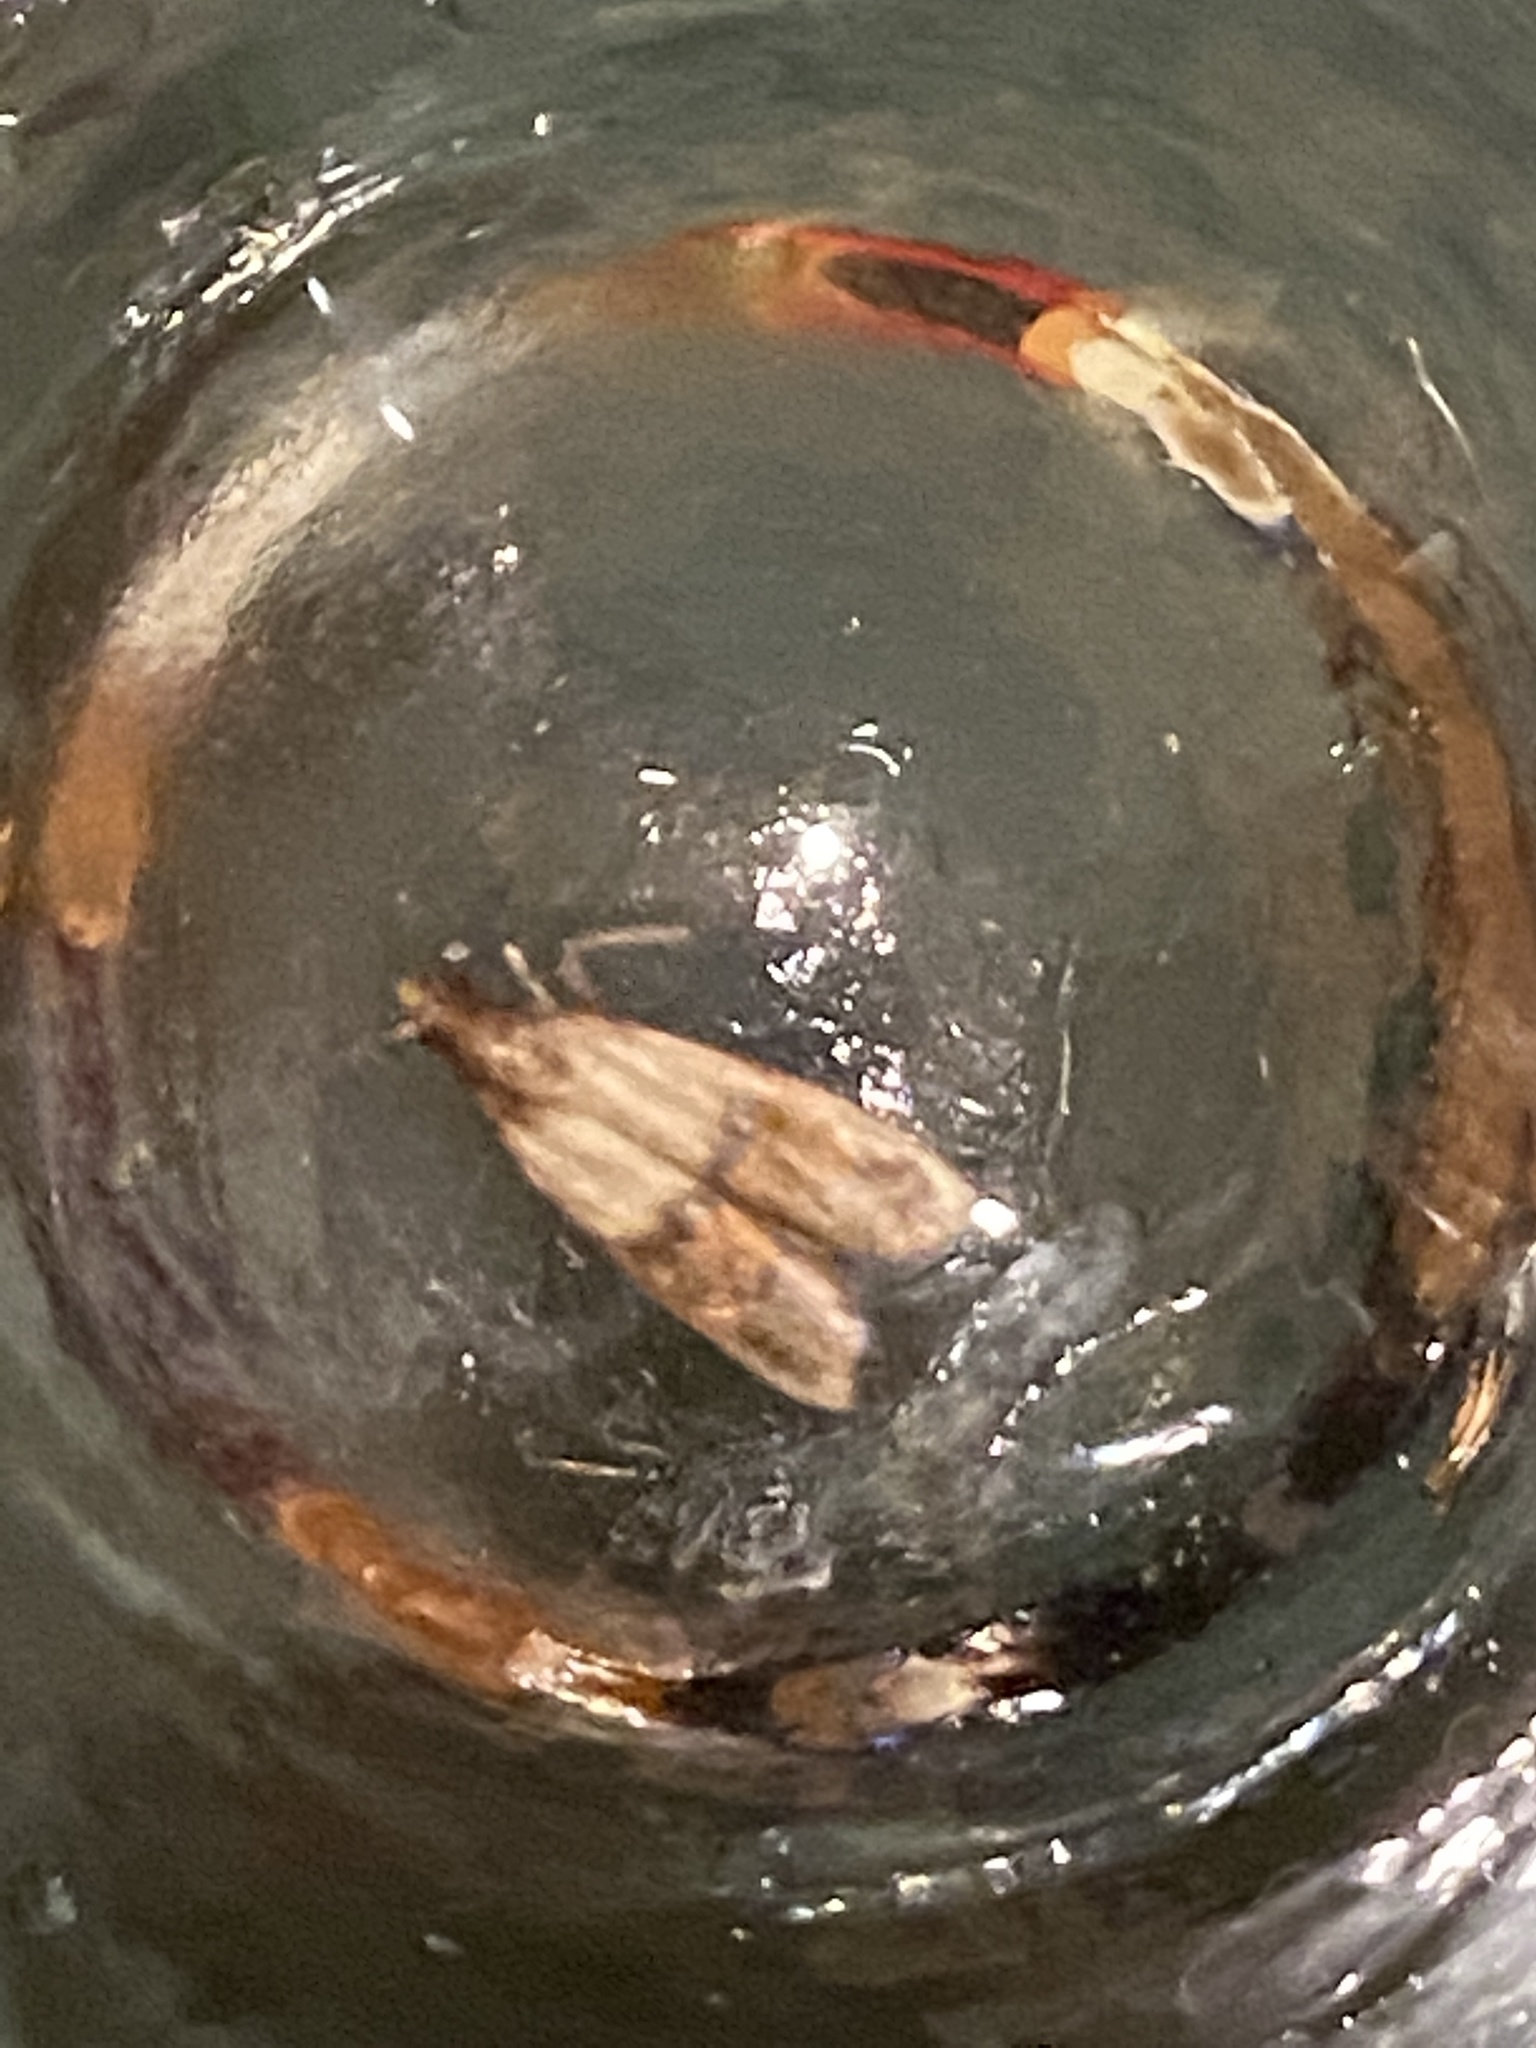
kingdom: Animalia
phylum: Arthropoda
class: Insecta
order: Lepidoptera
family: Pyralidae
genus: Plodia
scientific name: Plodia interpunctella
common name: Indian meal moth
